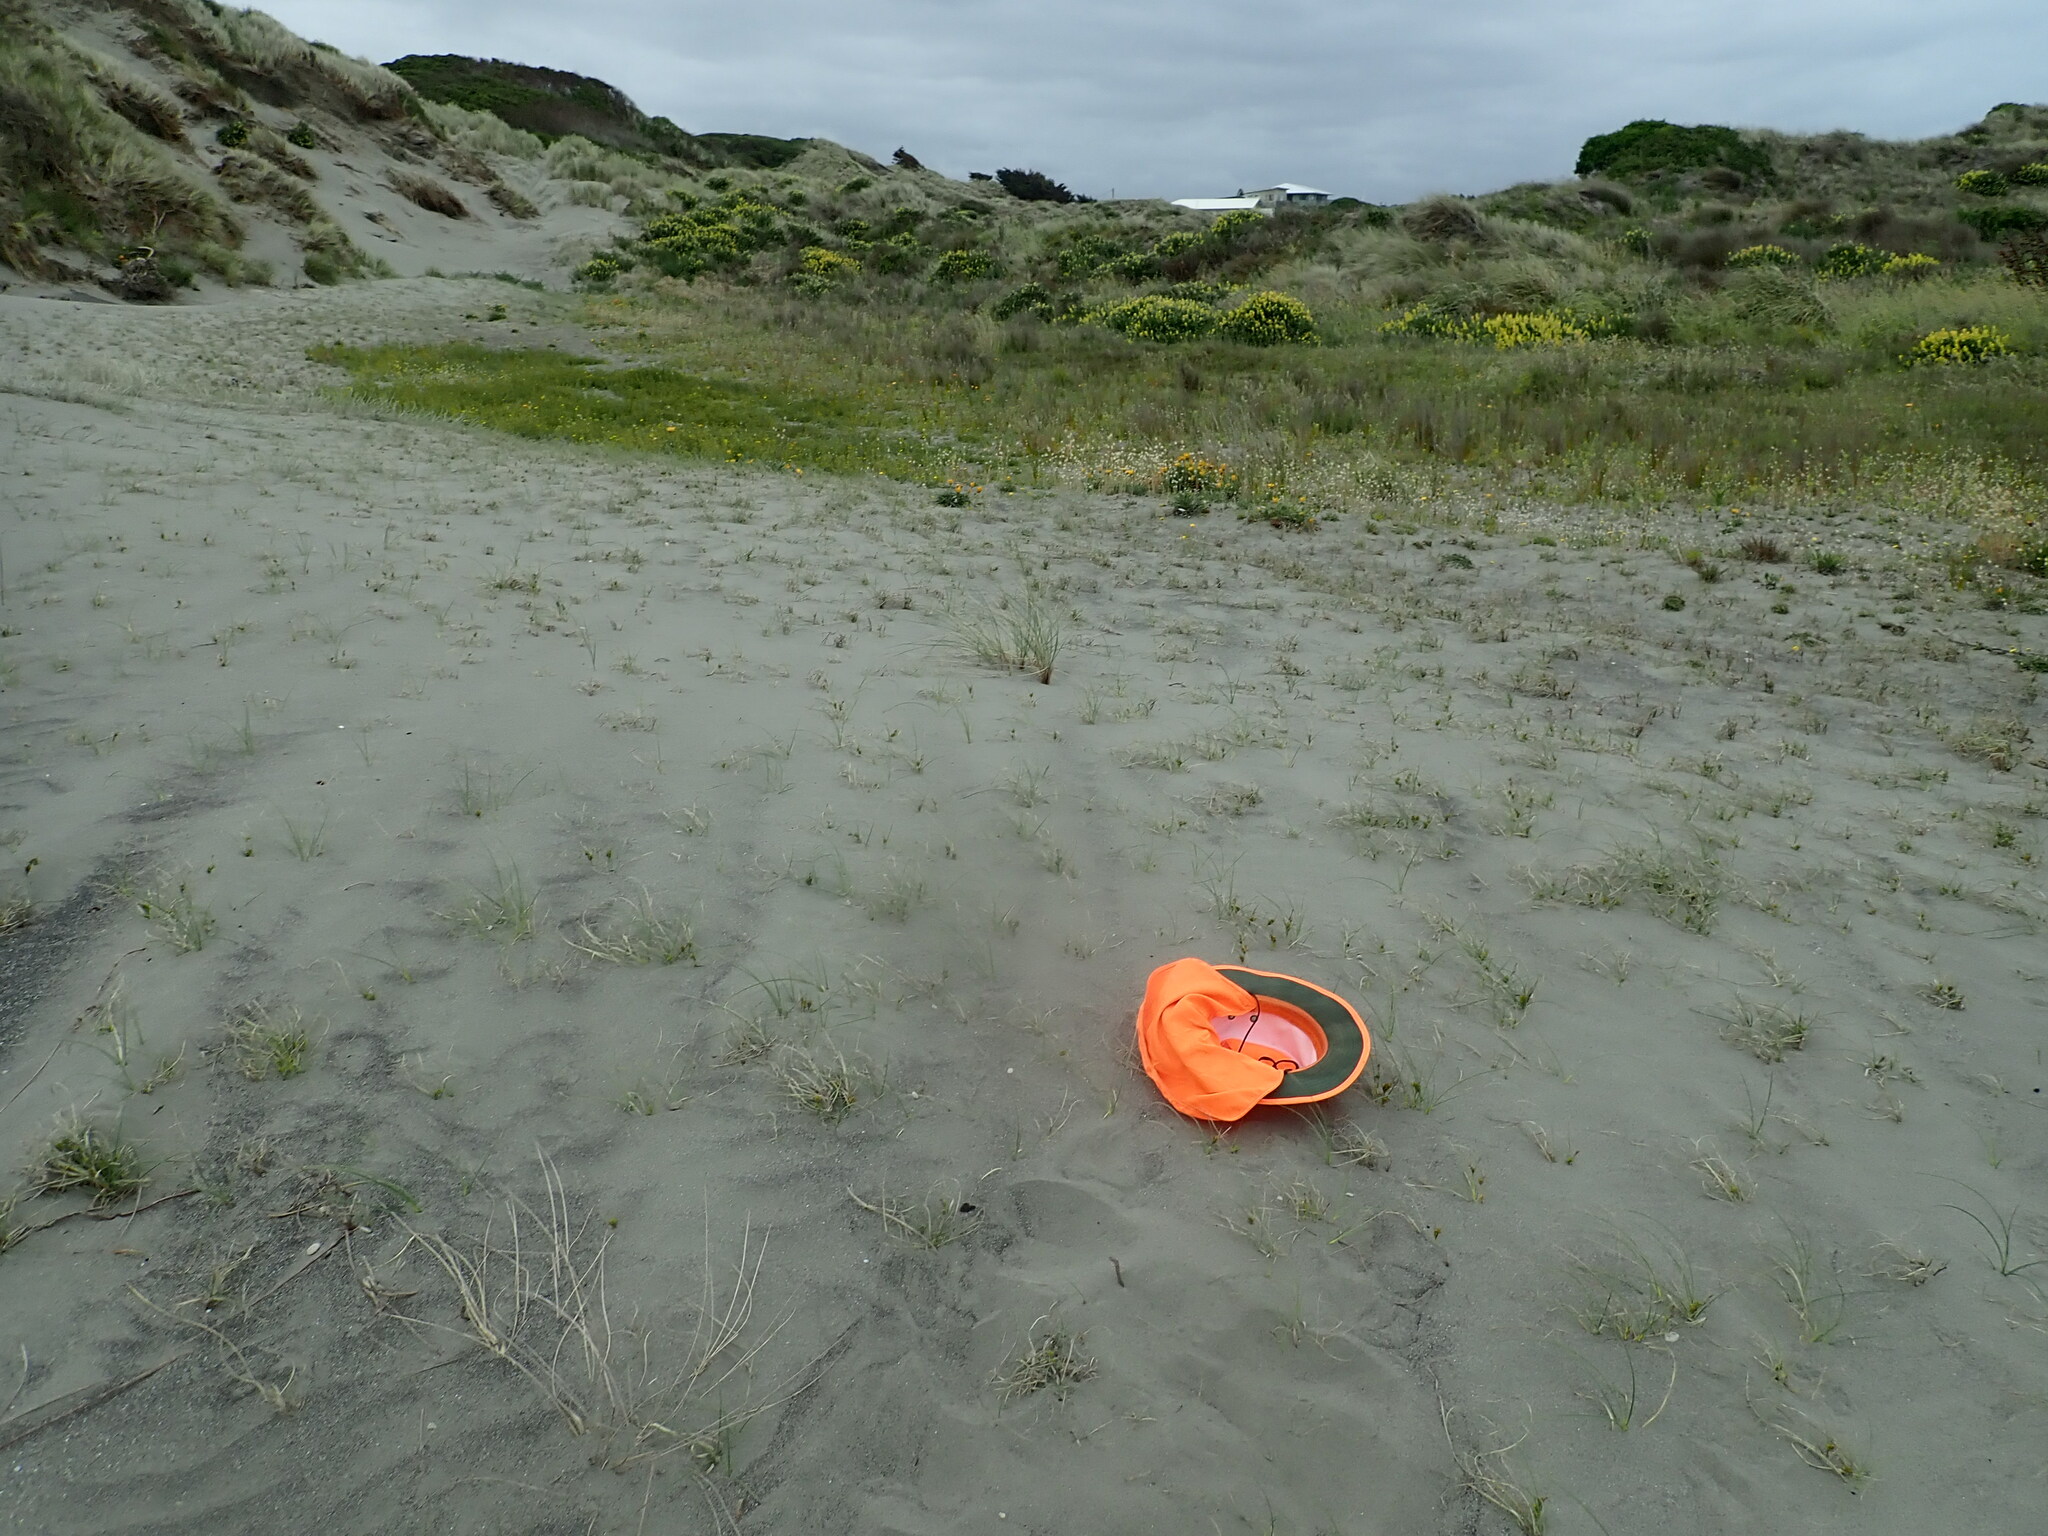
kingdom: Plantae
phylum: Tracheophyta
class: Liliopsida
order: Poales
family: Cyperaceae
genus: Carex
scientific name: Carex pumila
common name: Dwarf sedge
